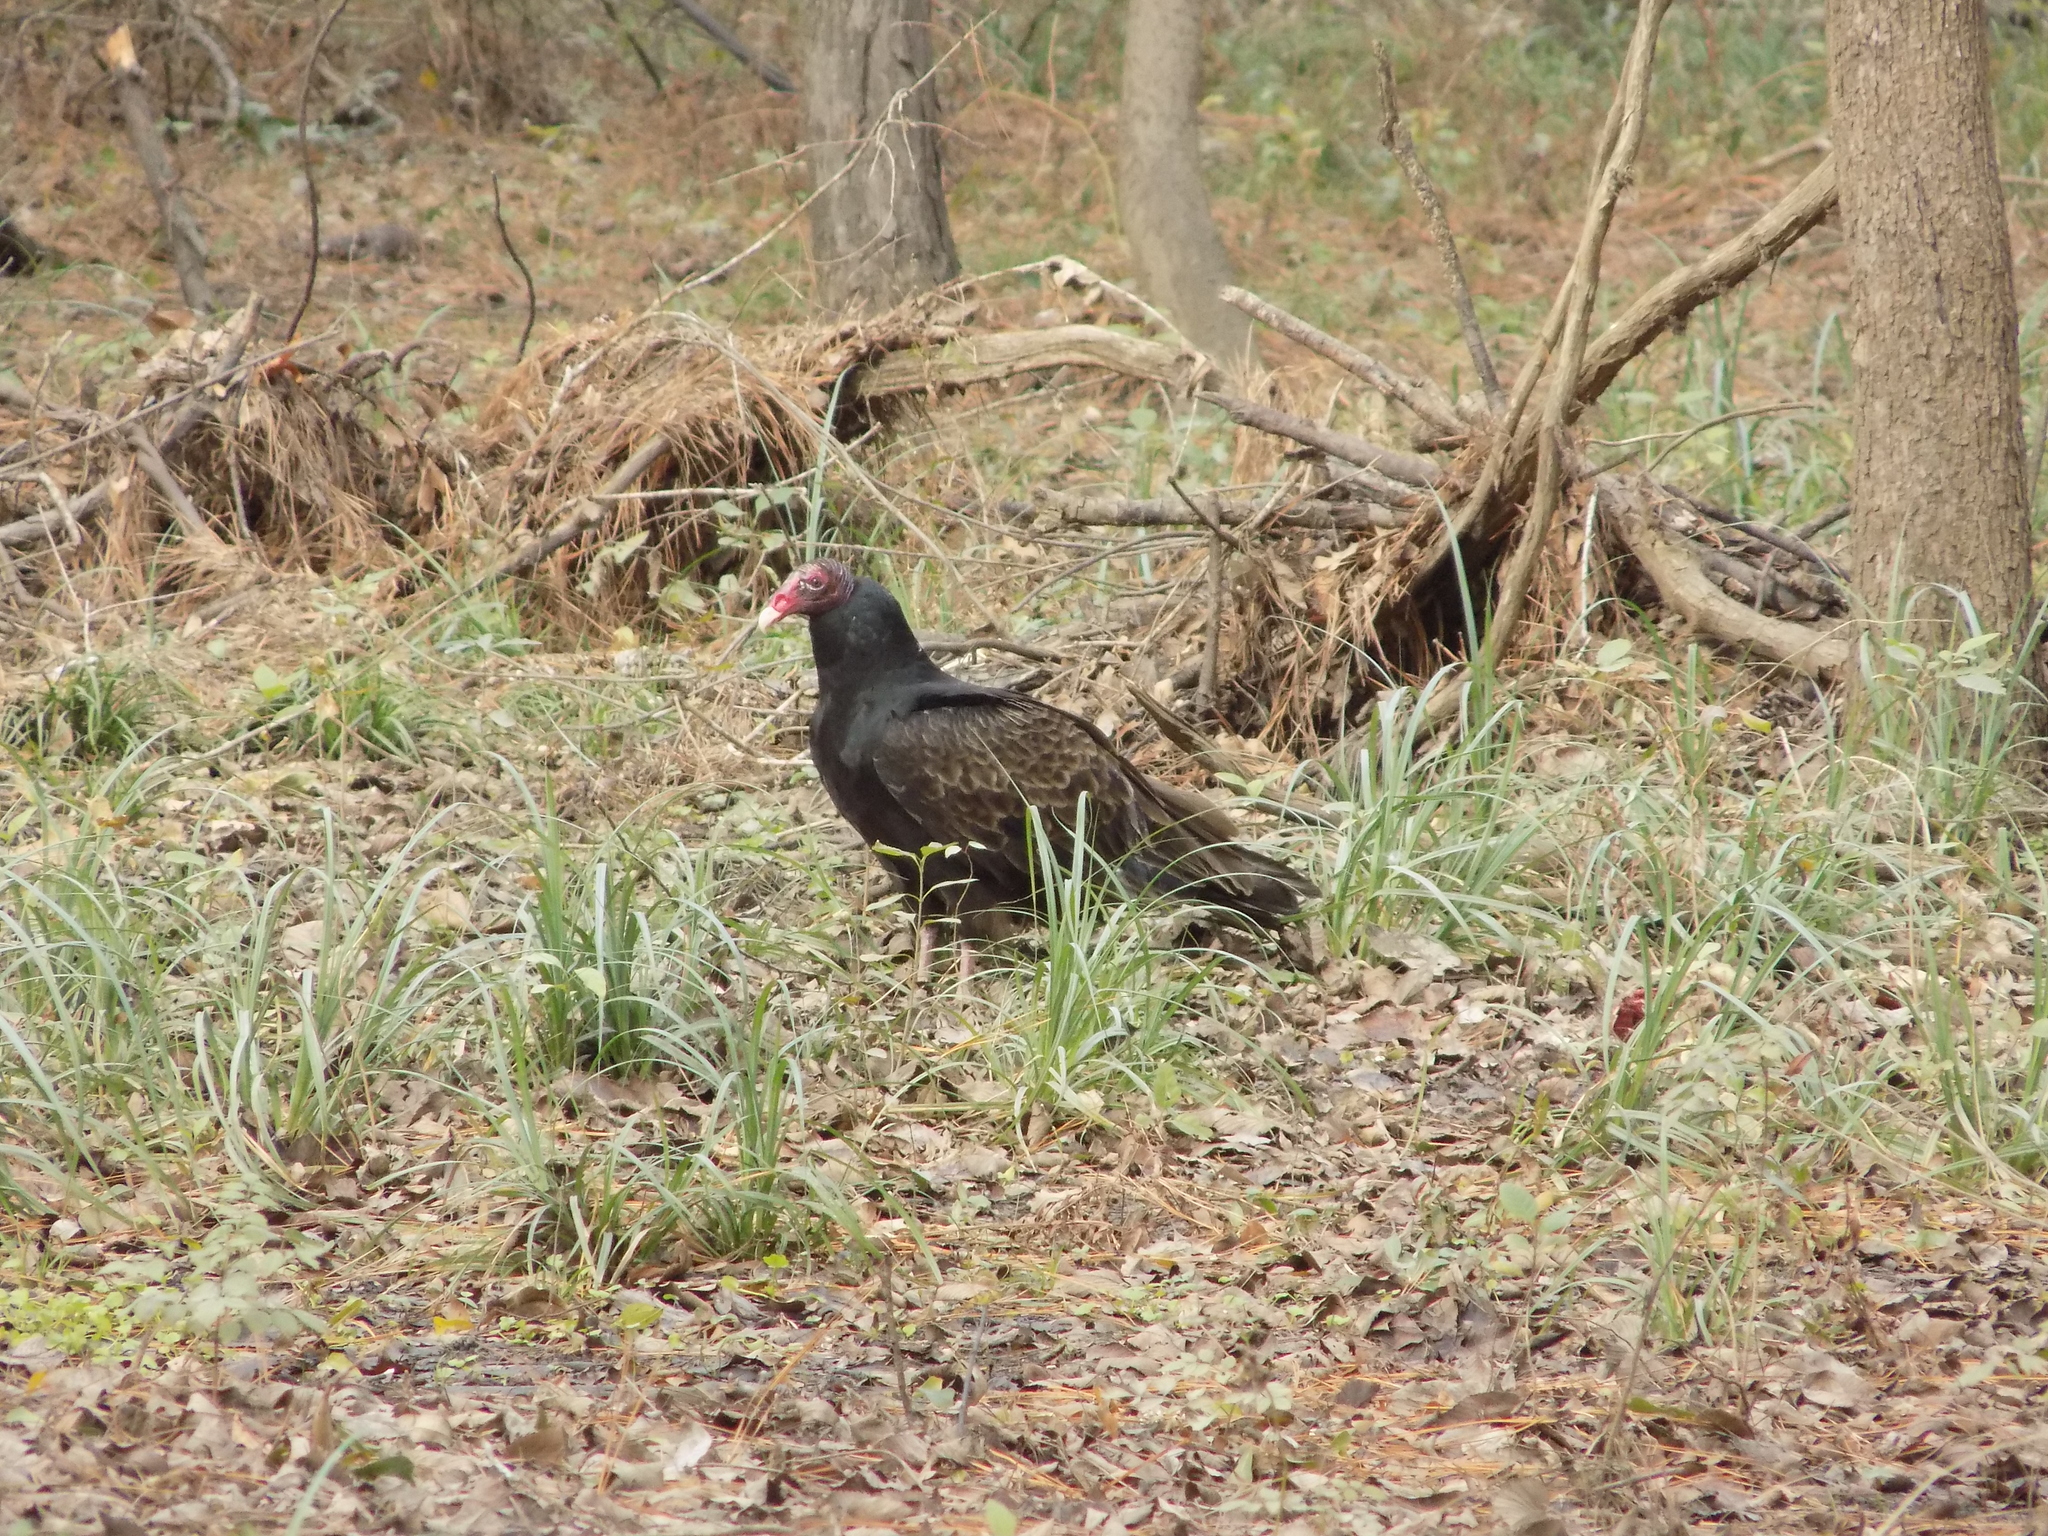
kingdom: Animalia
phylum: Chordata
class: Aves
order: Accipitriformes
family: Cathartidae
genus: Cathartes
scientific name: Cathartes aura
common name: Turkey vulture
